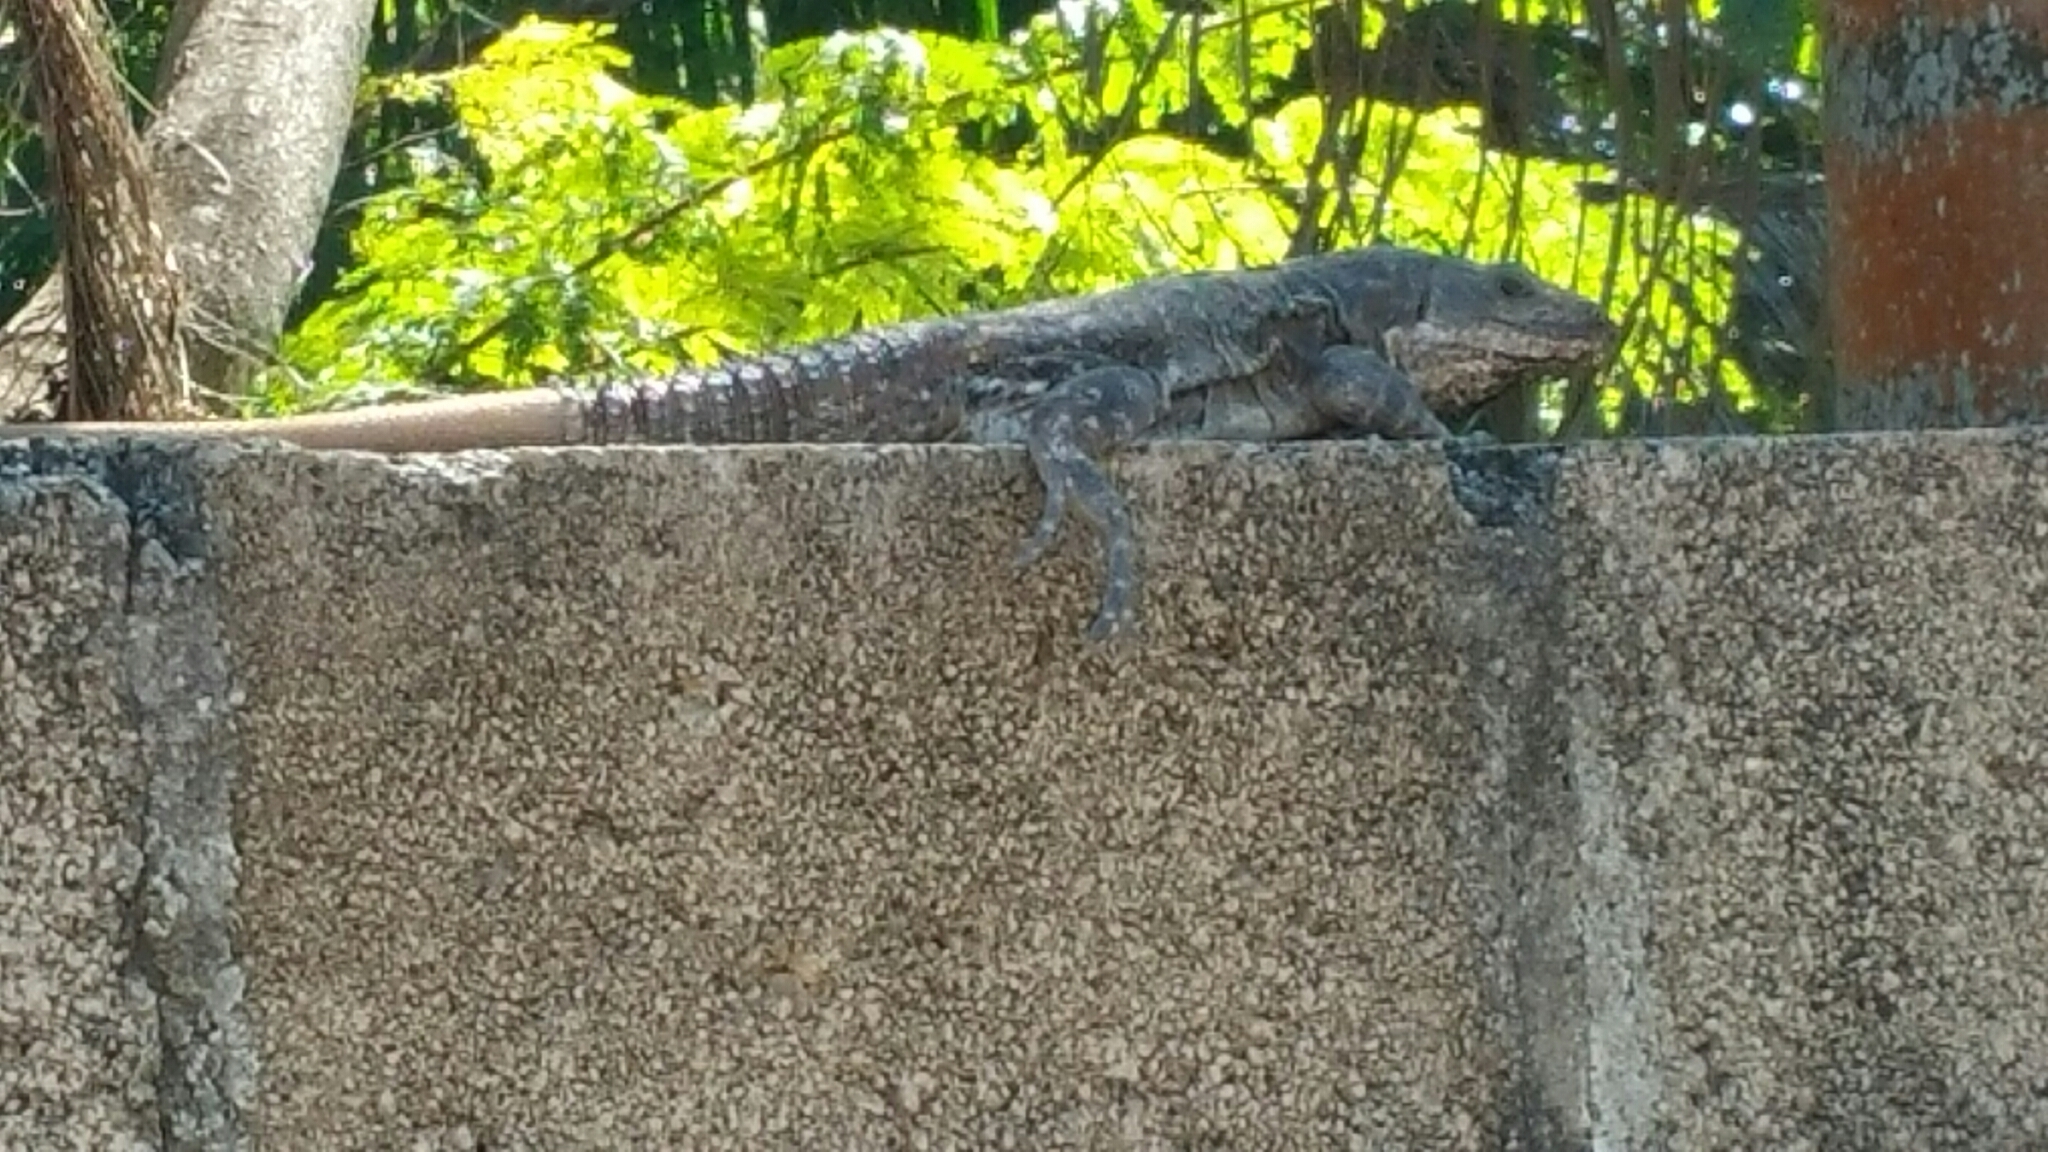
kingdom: Animalia
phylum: Chordata
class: Squamata
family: Iguanidae
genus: Ctenosaura
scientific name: Ctenosaura similis
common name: Black spiny-tailed iguana
